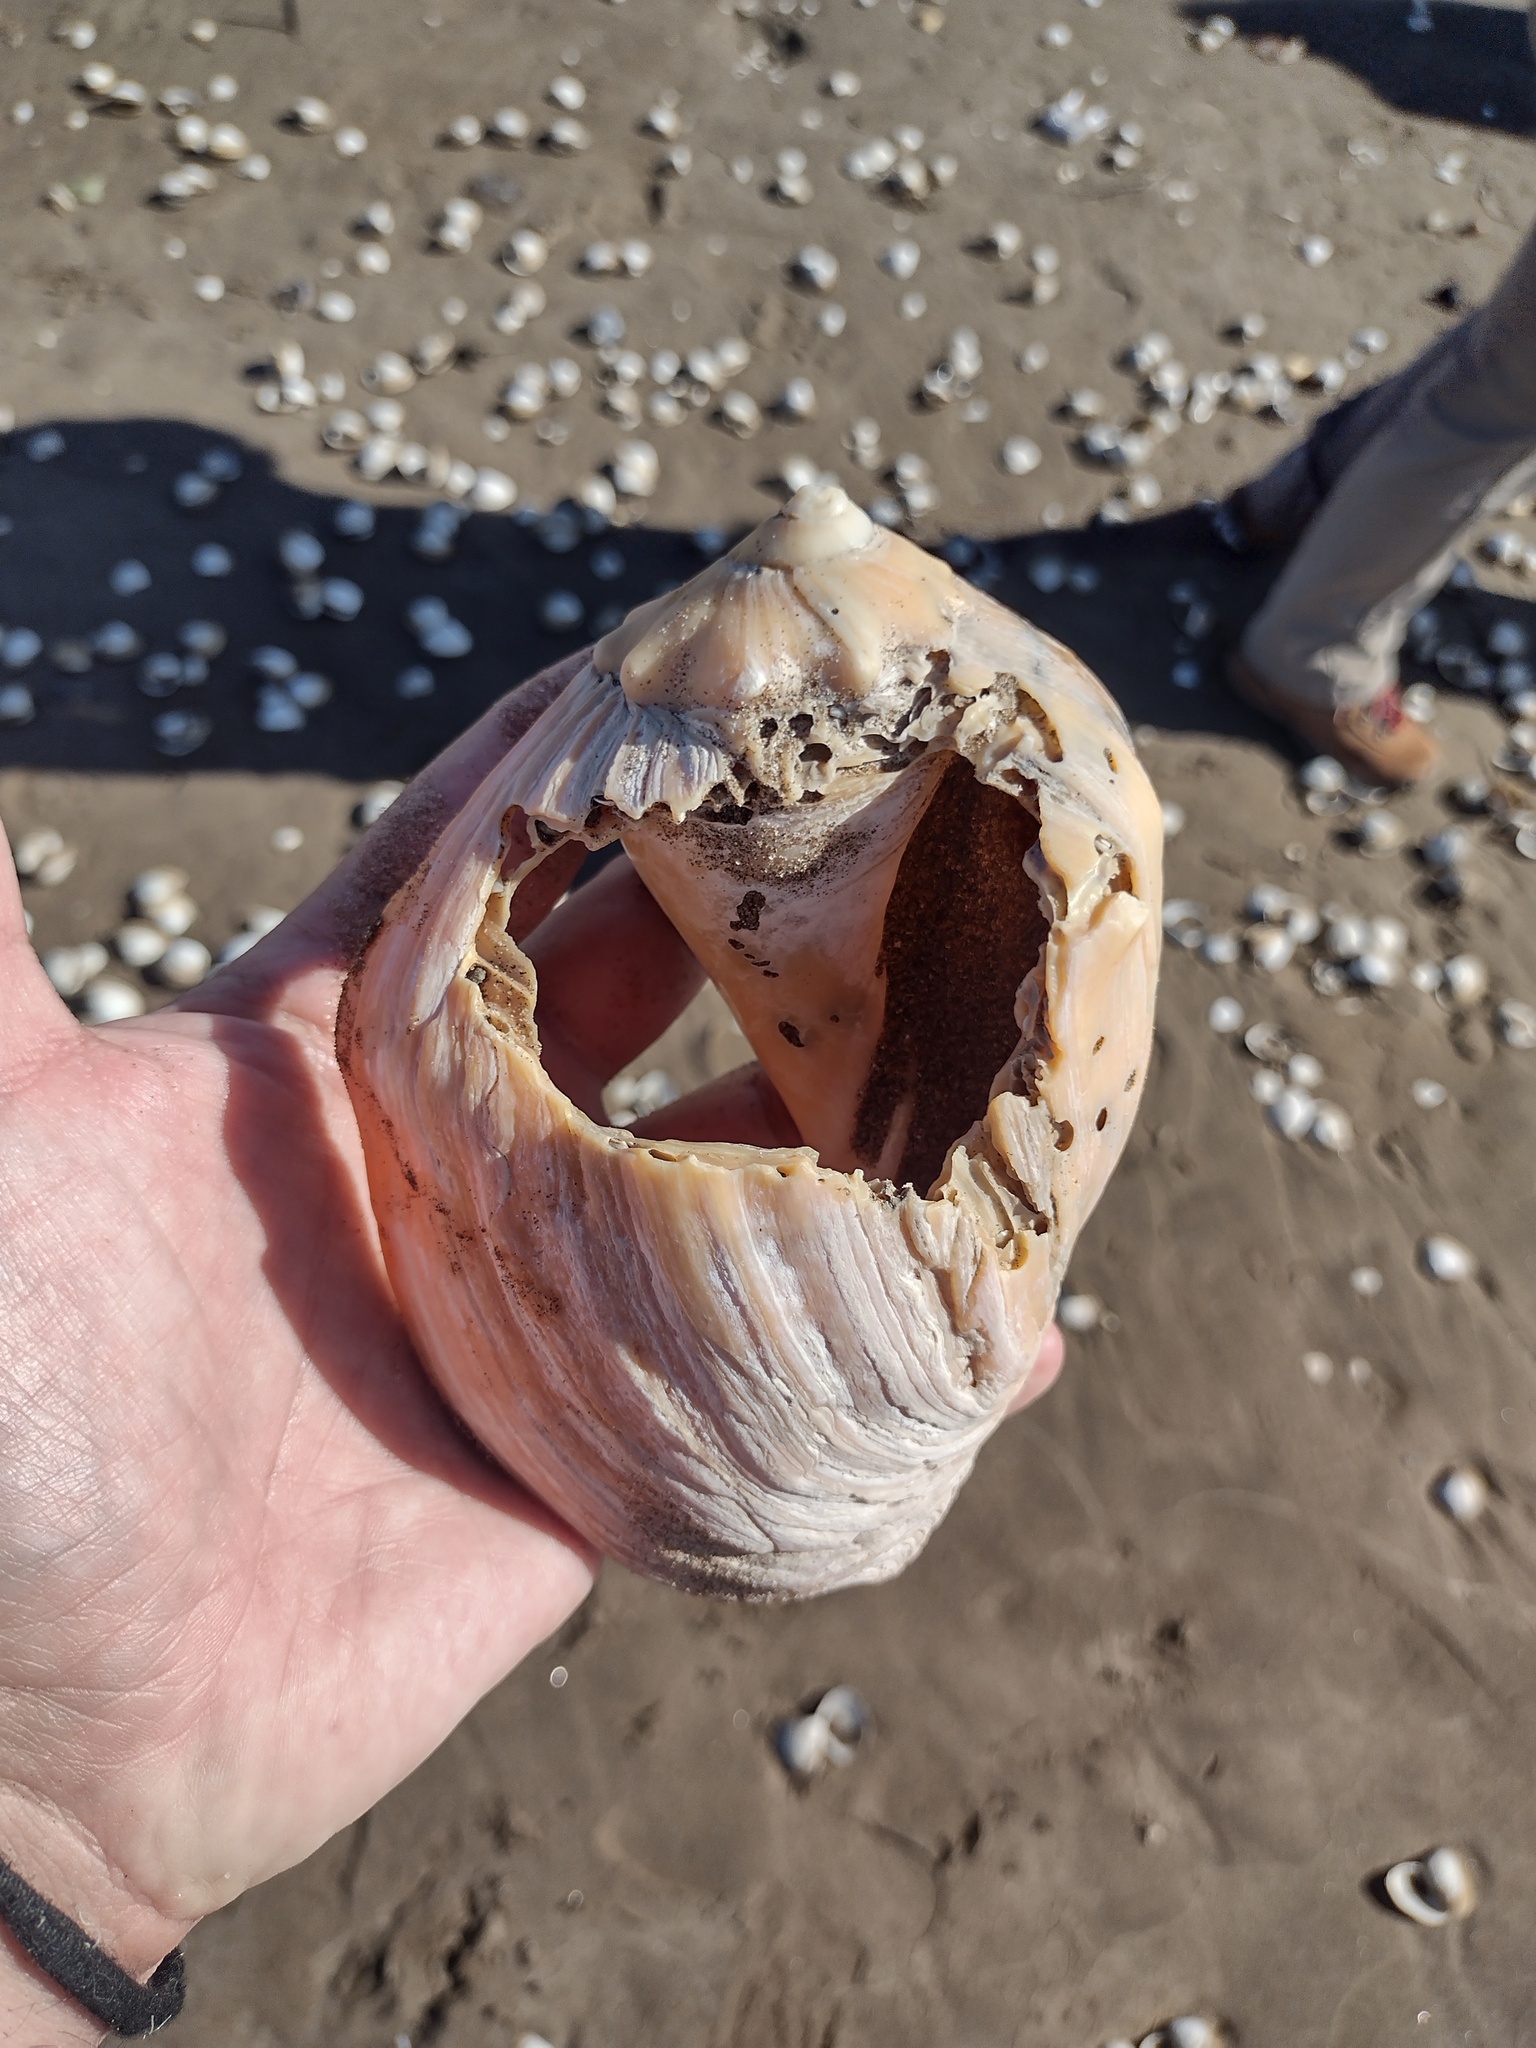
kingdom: Animalia
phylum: Mollusca
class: Gastropoda
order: Neogastropoda
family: Volutidae
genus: Pachycymbiola
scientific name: Pachycymbiola brasiliana
